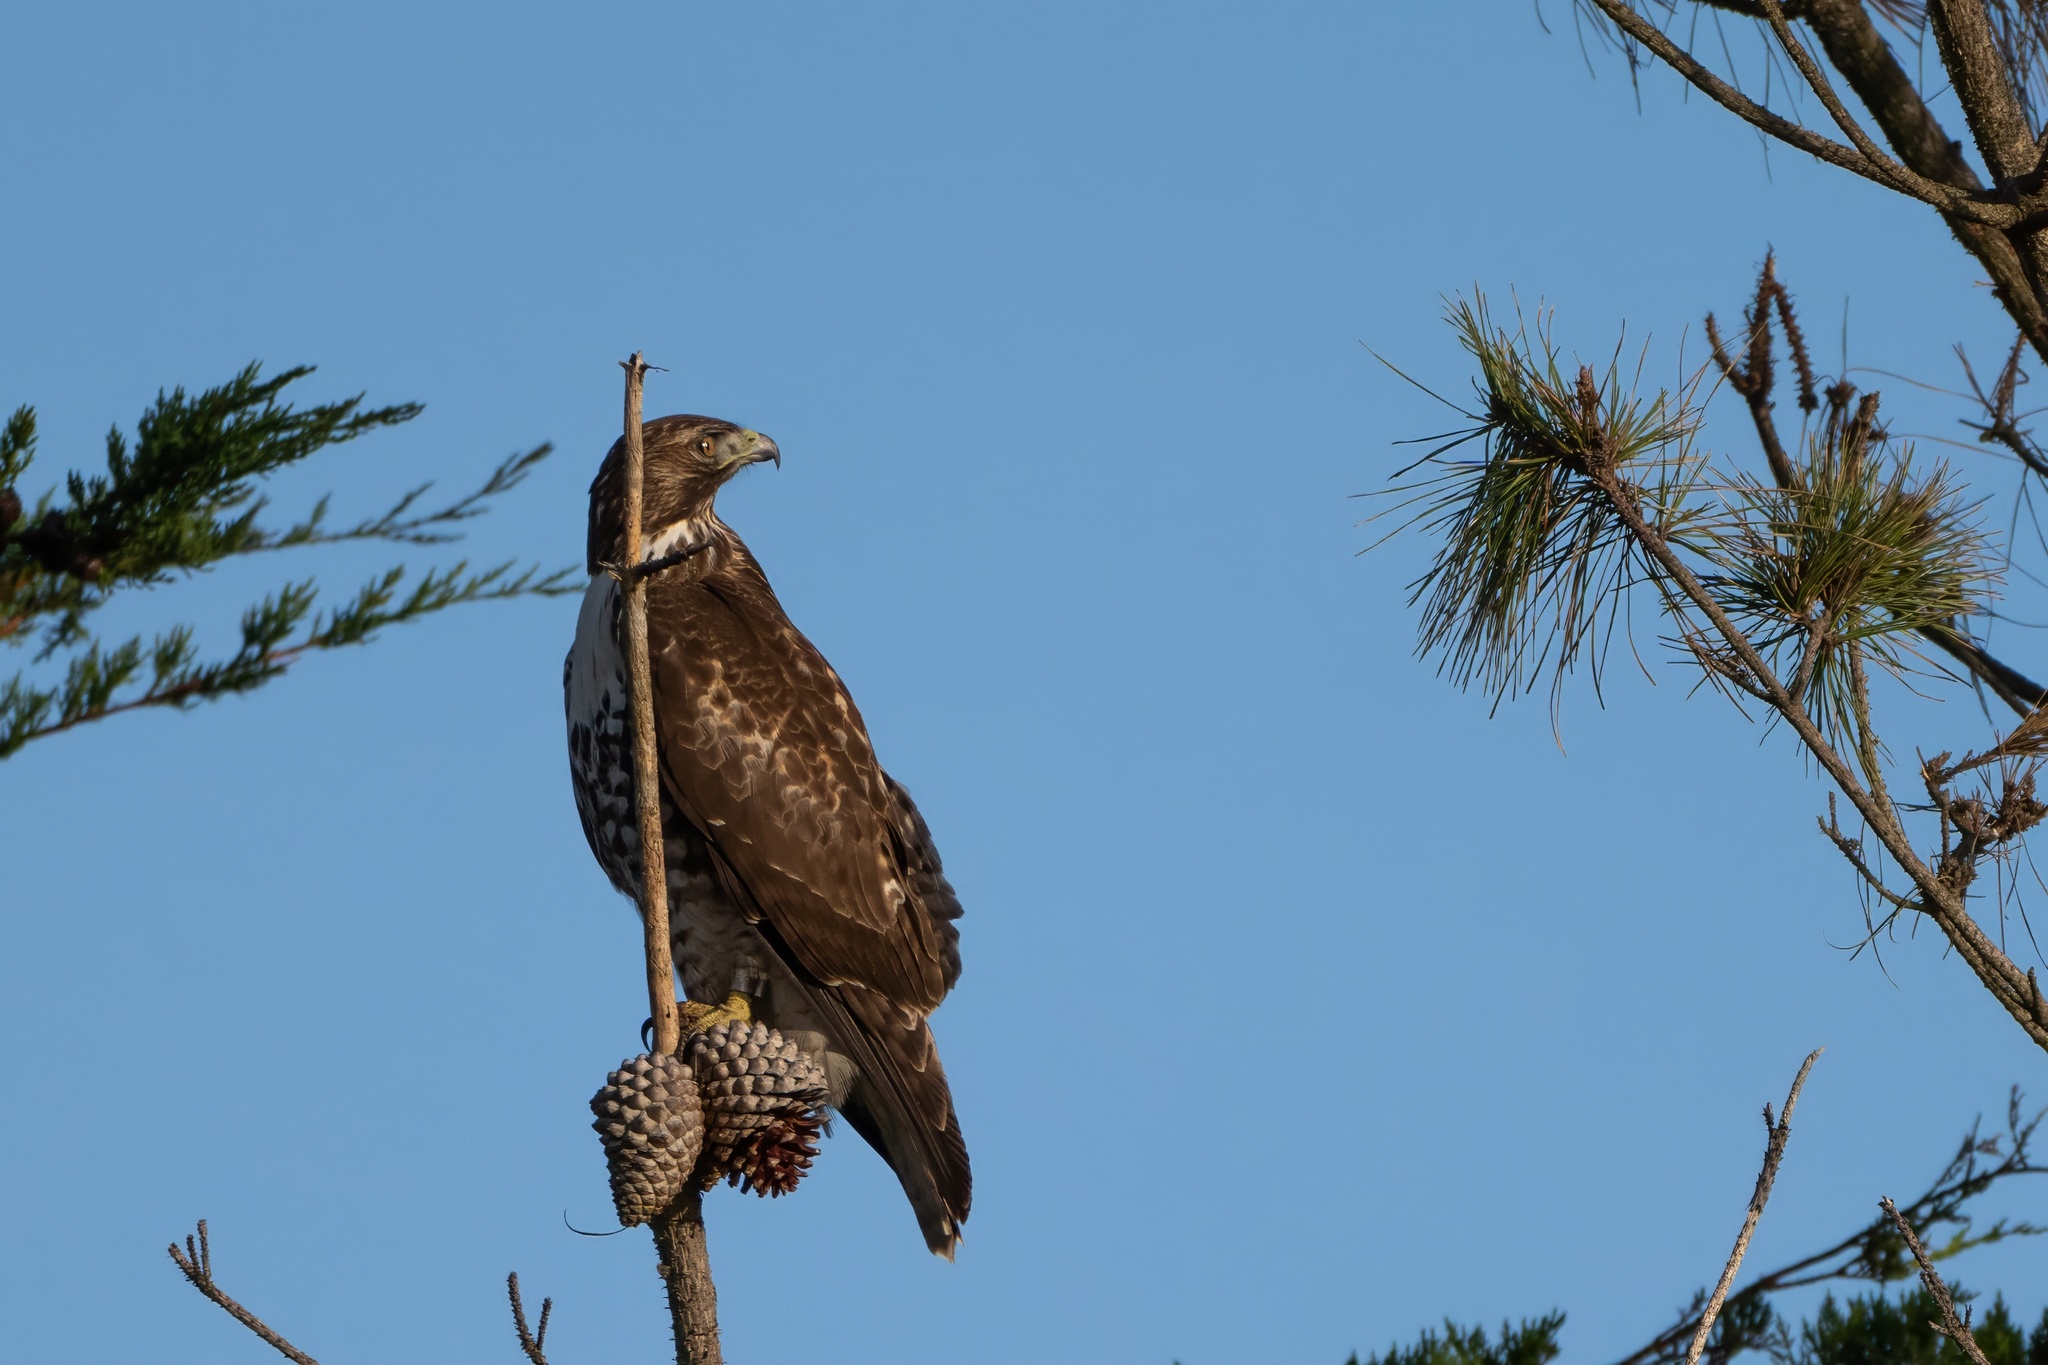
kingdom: Animalia
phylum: Chordata
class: Aves
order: Accipitriformes
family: Accipitridae
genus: Buteo
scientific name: Buteo jamaicensis
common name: Red-tailed hawk
